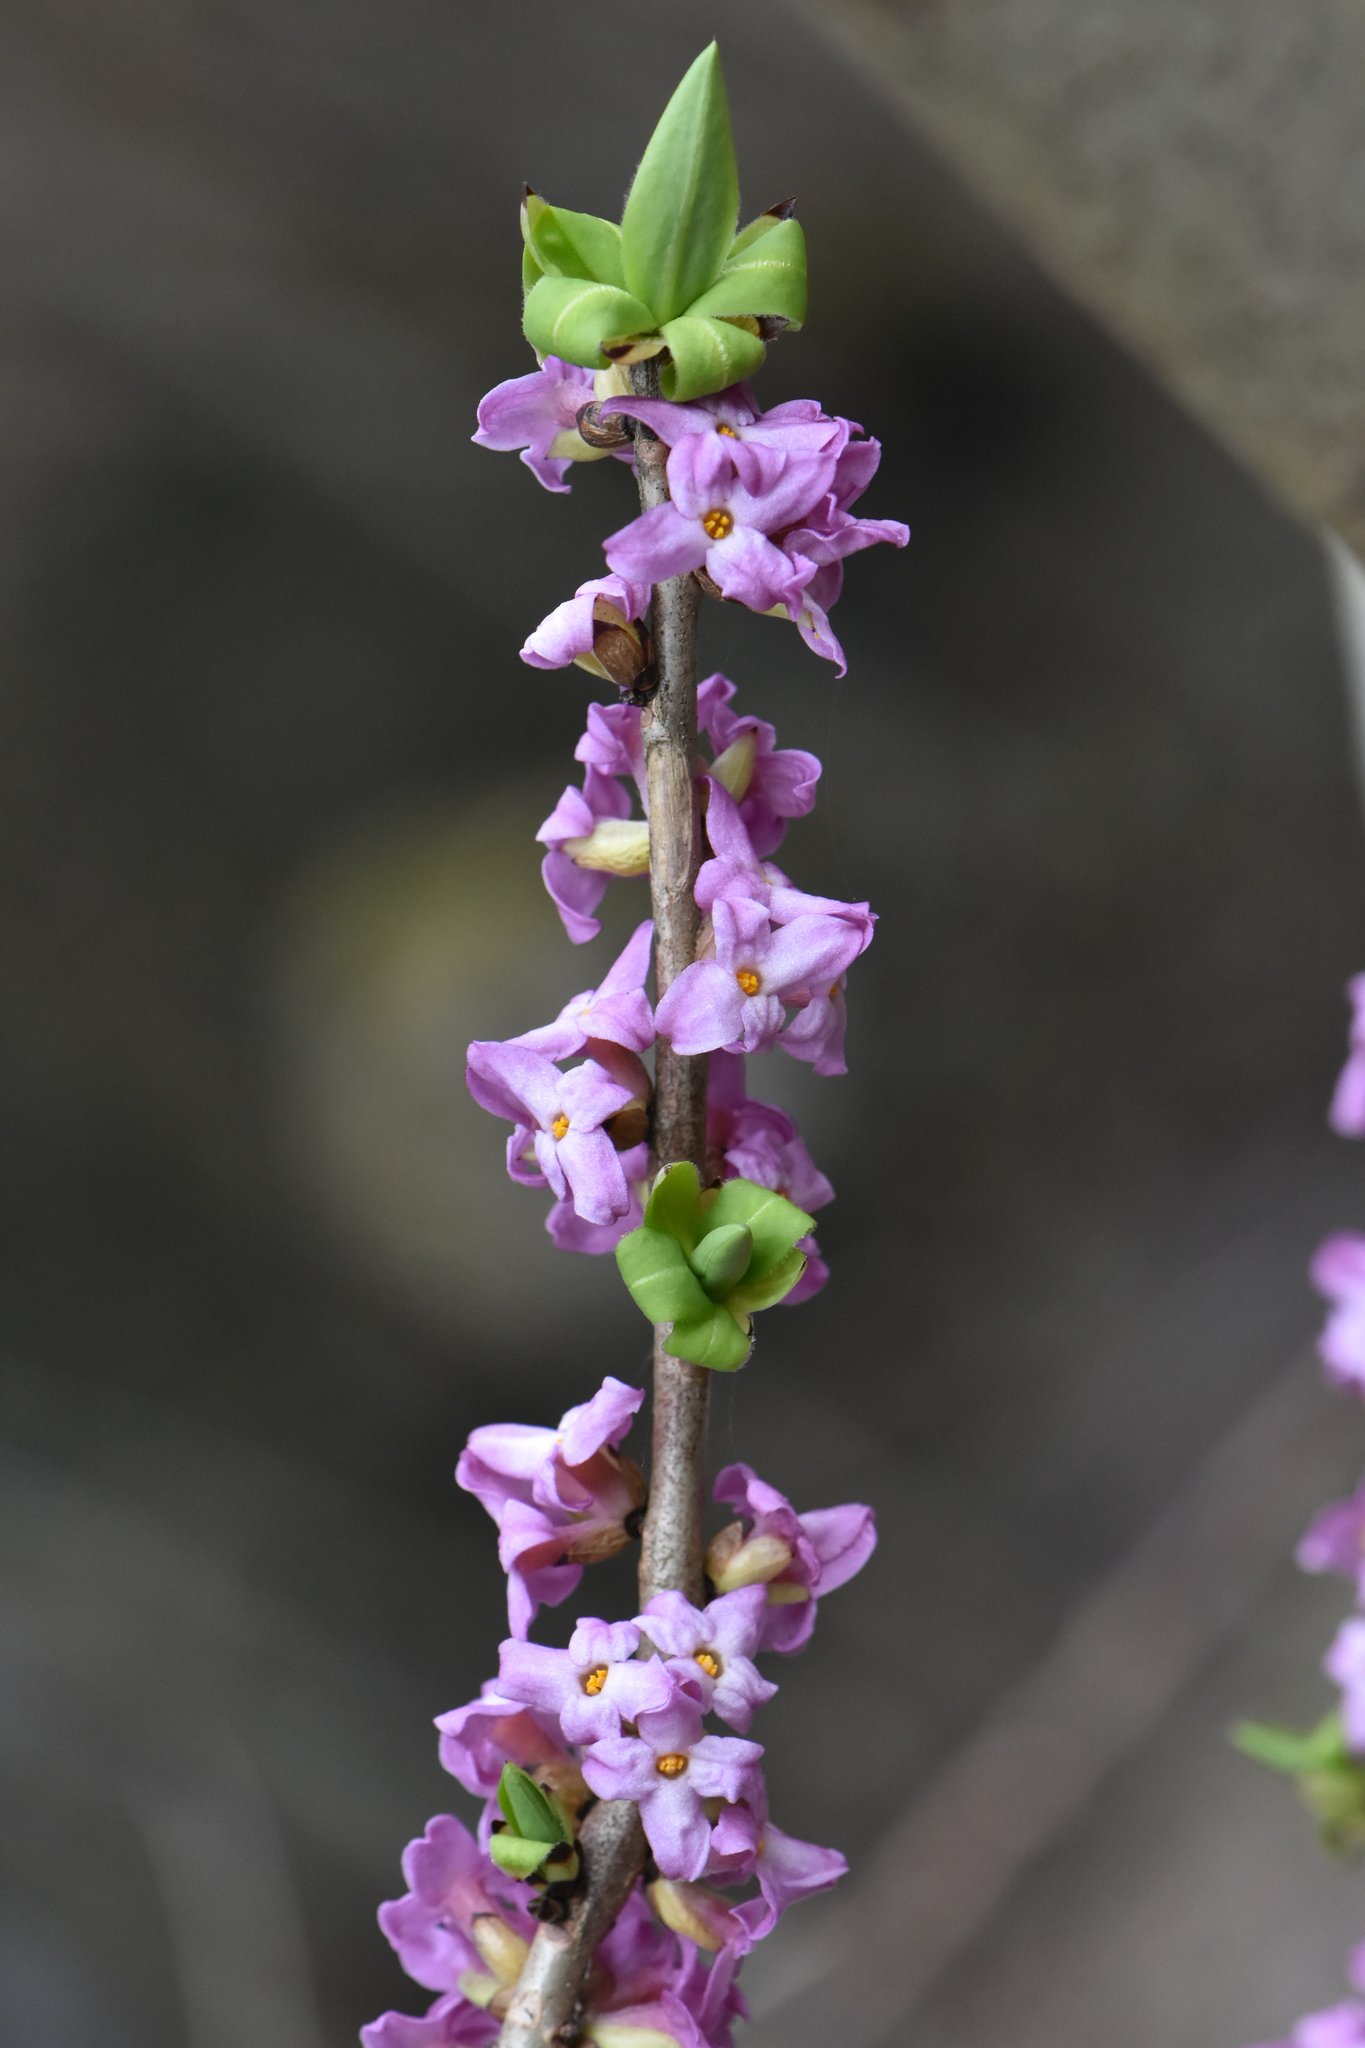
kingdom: Plantae
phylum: Tracheophyta
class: Magnoliopsida
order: Malvales
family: Thymelaeaceae
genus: Daphne
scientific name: Daphne mezereum
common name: Mezereon
